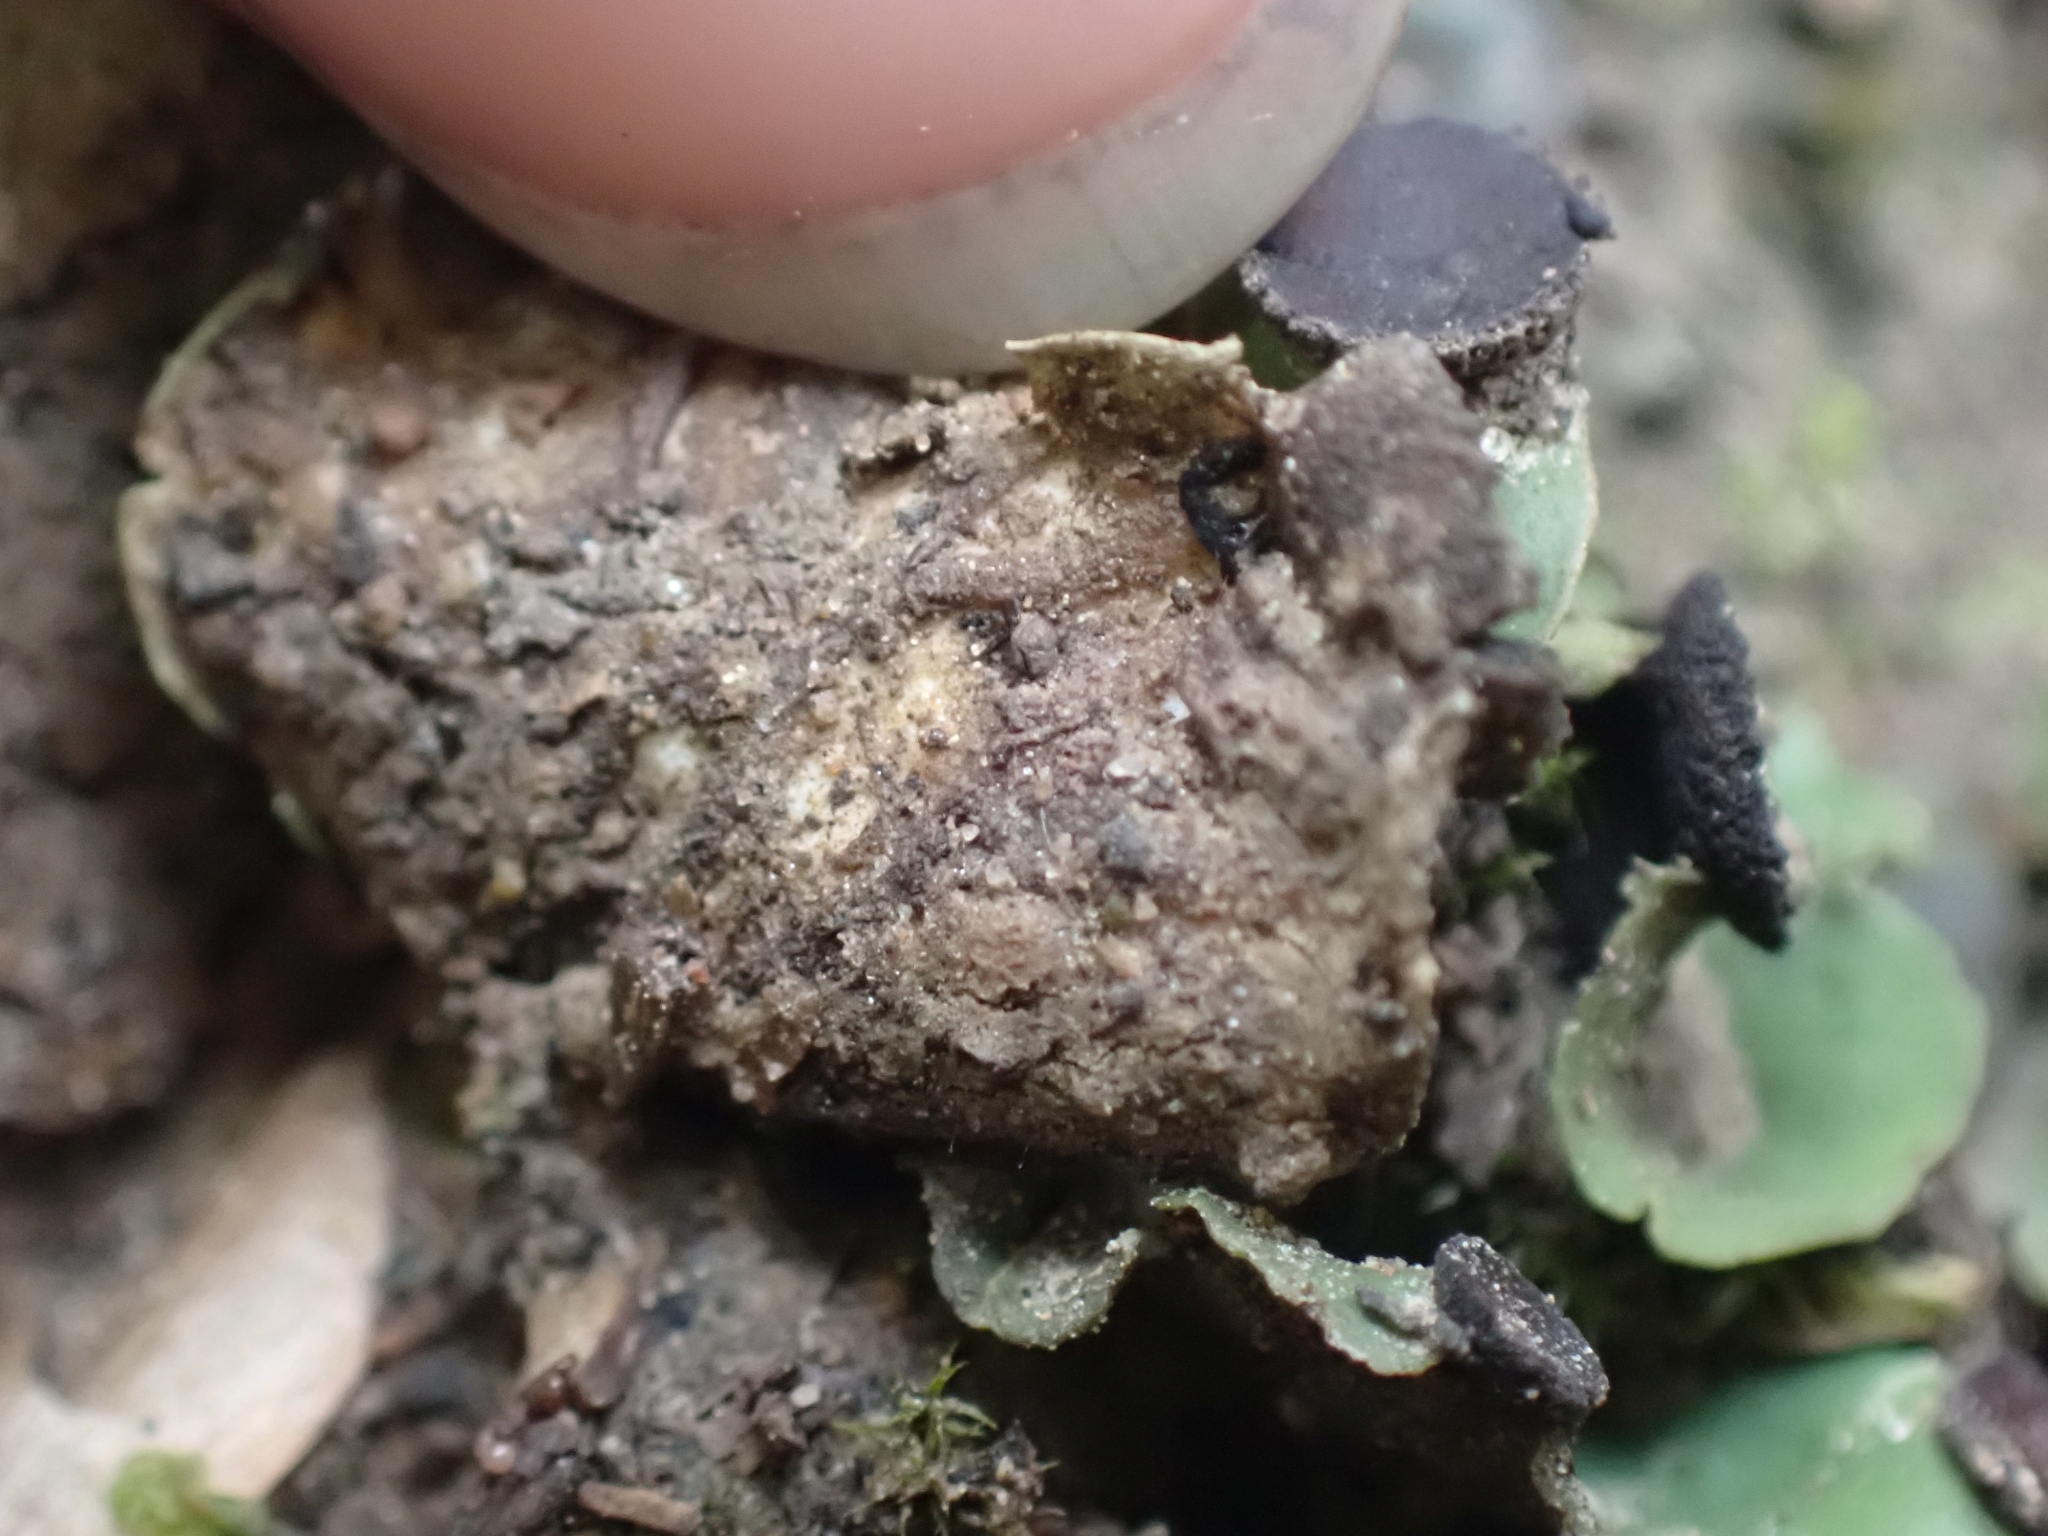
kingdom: Fungi
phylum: Ascomycota
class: Lecanoromycetes
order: Peltigerales
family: Peltigeraceae
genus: Peltigera
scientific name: Peltigera venosa
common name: Pixie gowns lichen
